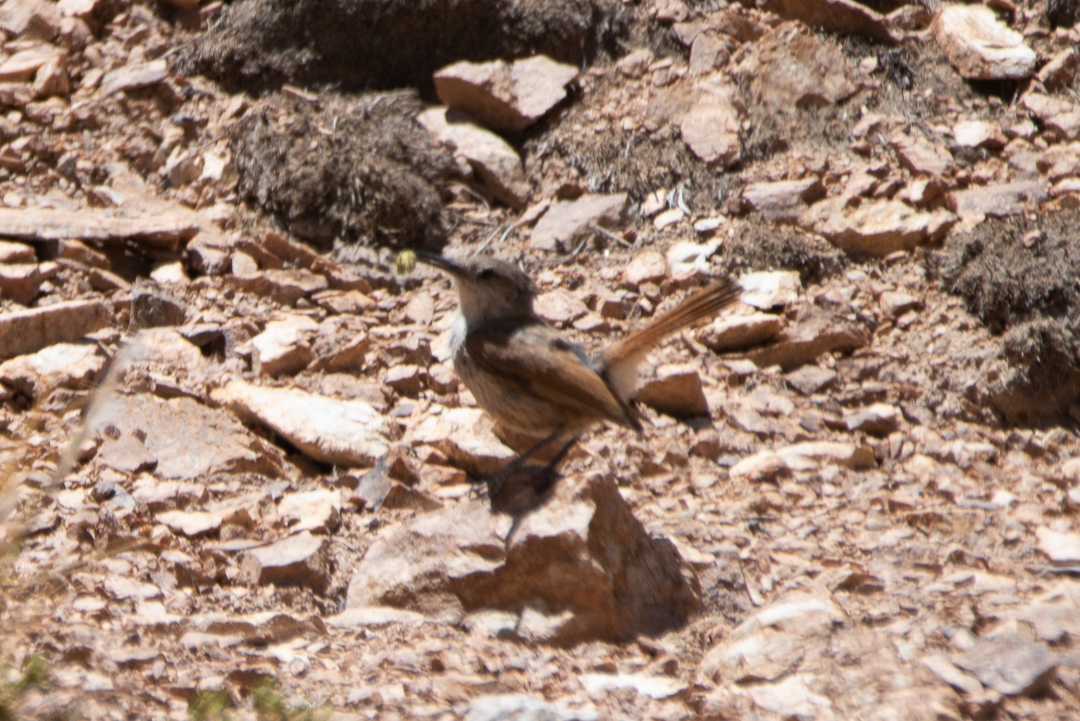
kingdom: Animalia
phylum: Chordata
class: Aves
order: Passeriformes
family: Furnariidae
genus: Upucerthia
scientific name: Upucerthia ruficaudus
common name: Straight-billed earthcreeper
